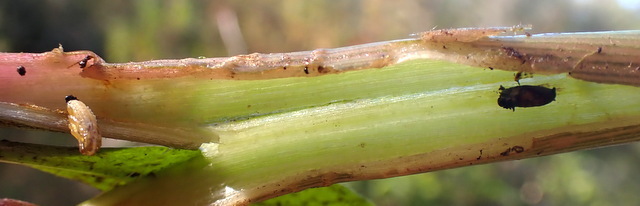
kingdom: Animalia
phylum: Arthropoda
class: Insecta
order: Coleoptera
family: Chrysomelidae
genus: Agasicles
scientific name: Agasicles hygrophila
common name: Alligatorweed flea beetle
